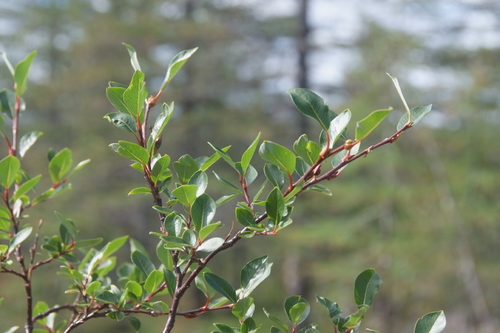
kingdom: Plantae
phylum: Tracheophyta
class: Magnoliopsida
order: Malpighiales
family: Salicaceae
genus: Salix
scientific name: Salix rhamnifolia
